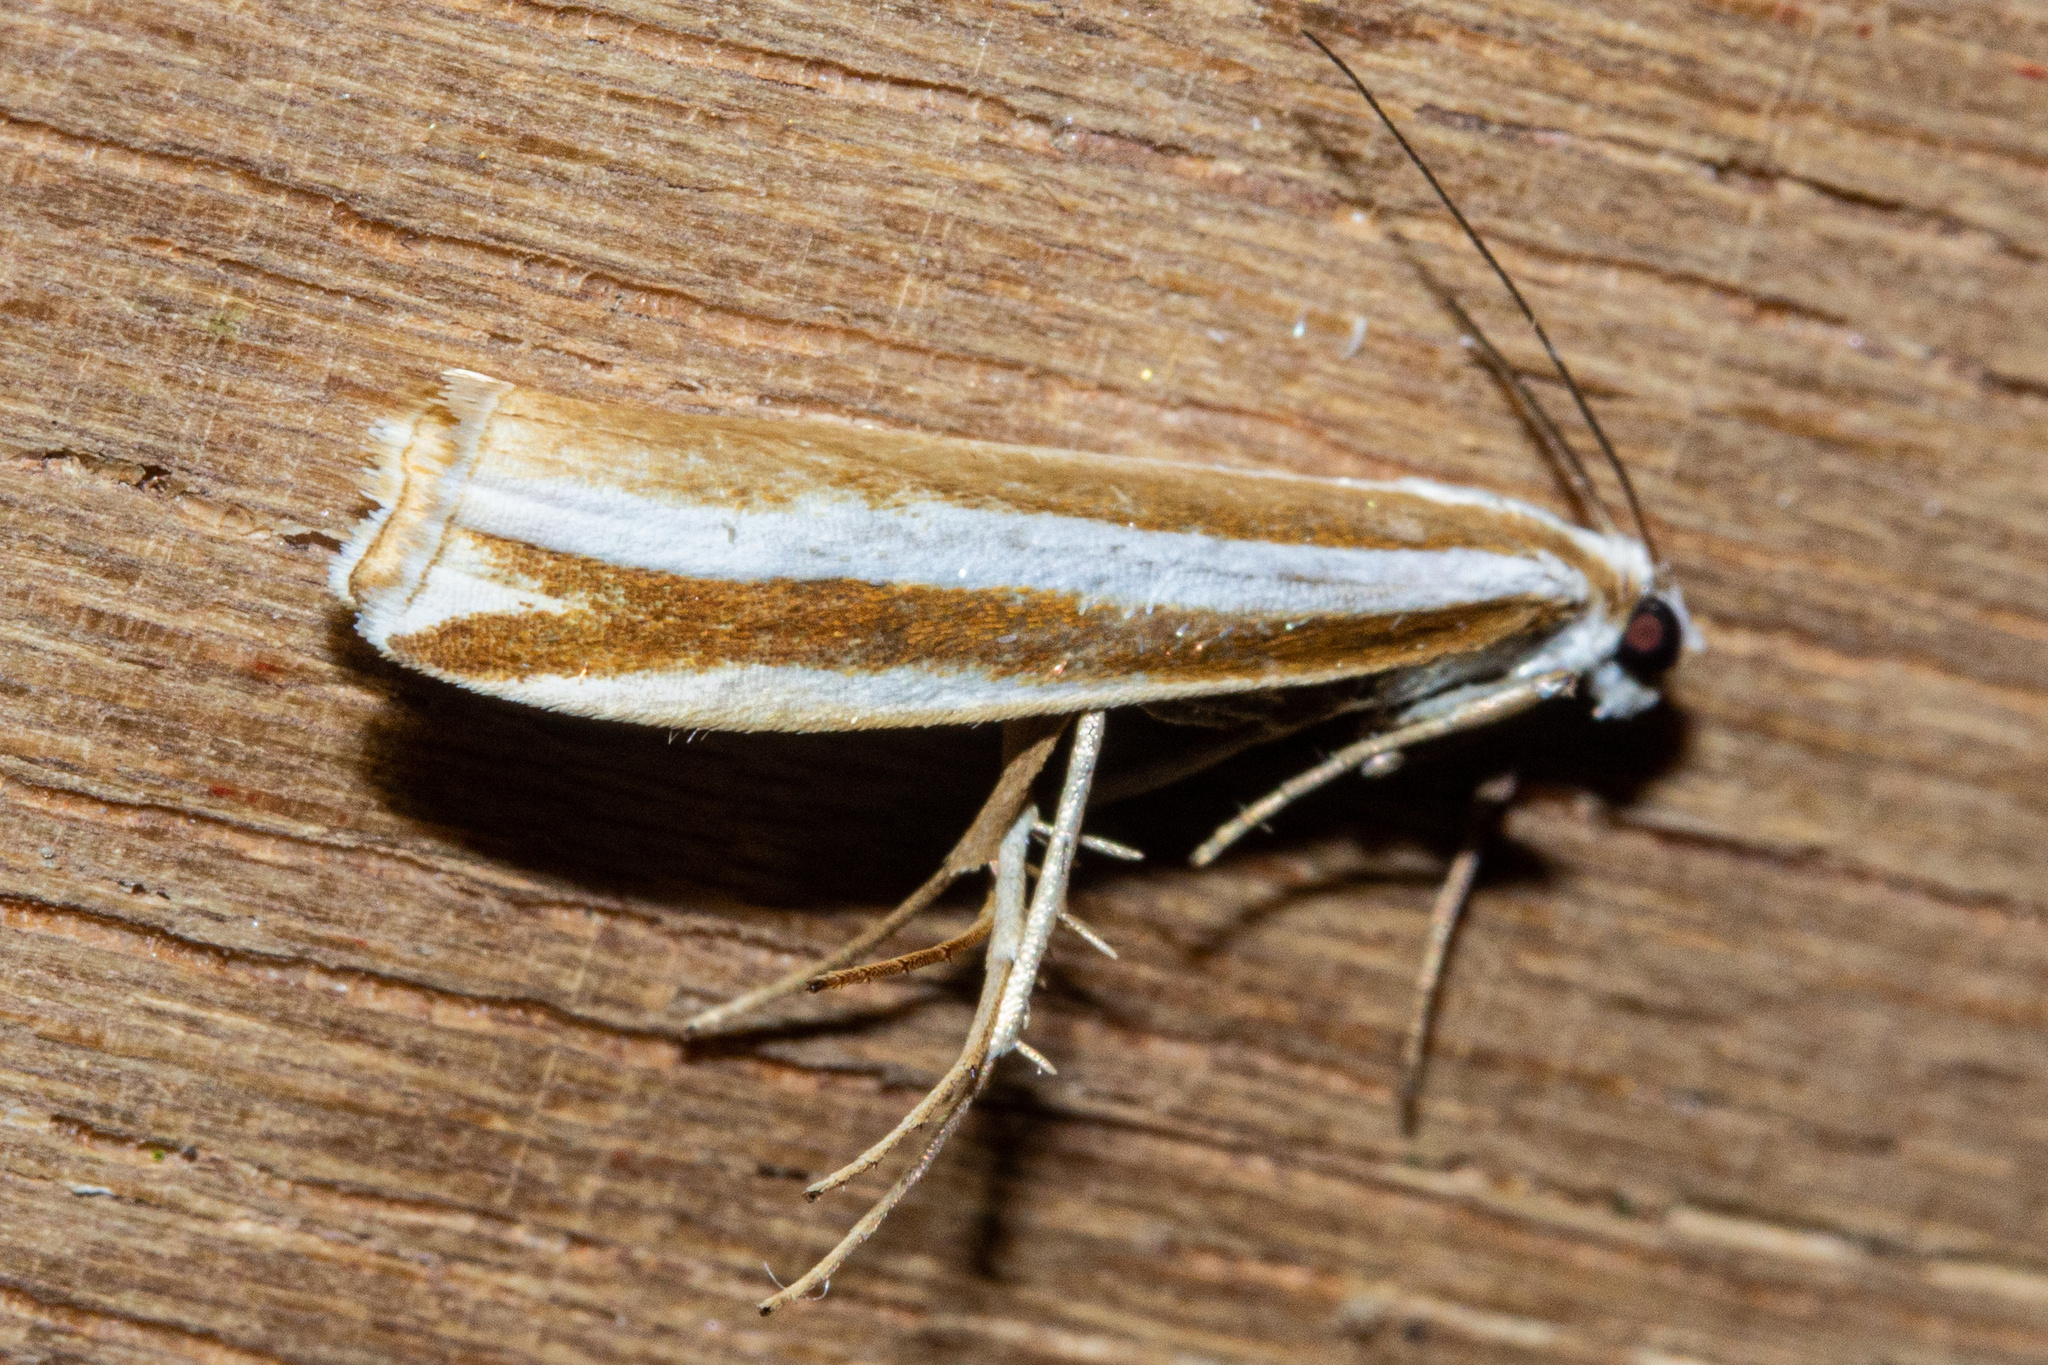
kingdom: Animalia
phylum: Arthropoda
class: Insecta
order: Lepidoptera
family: Crambidae
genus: Orocrambus
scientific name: Orocrambus apicellus
